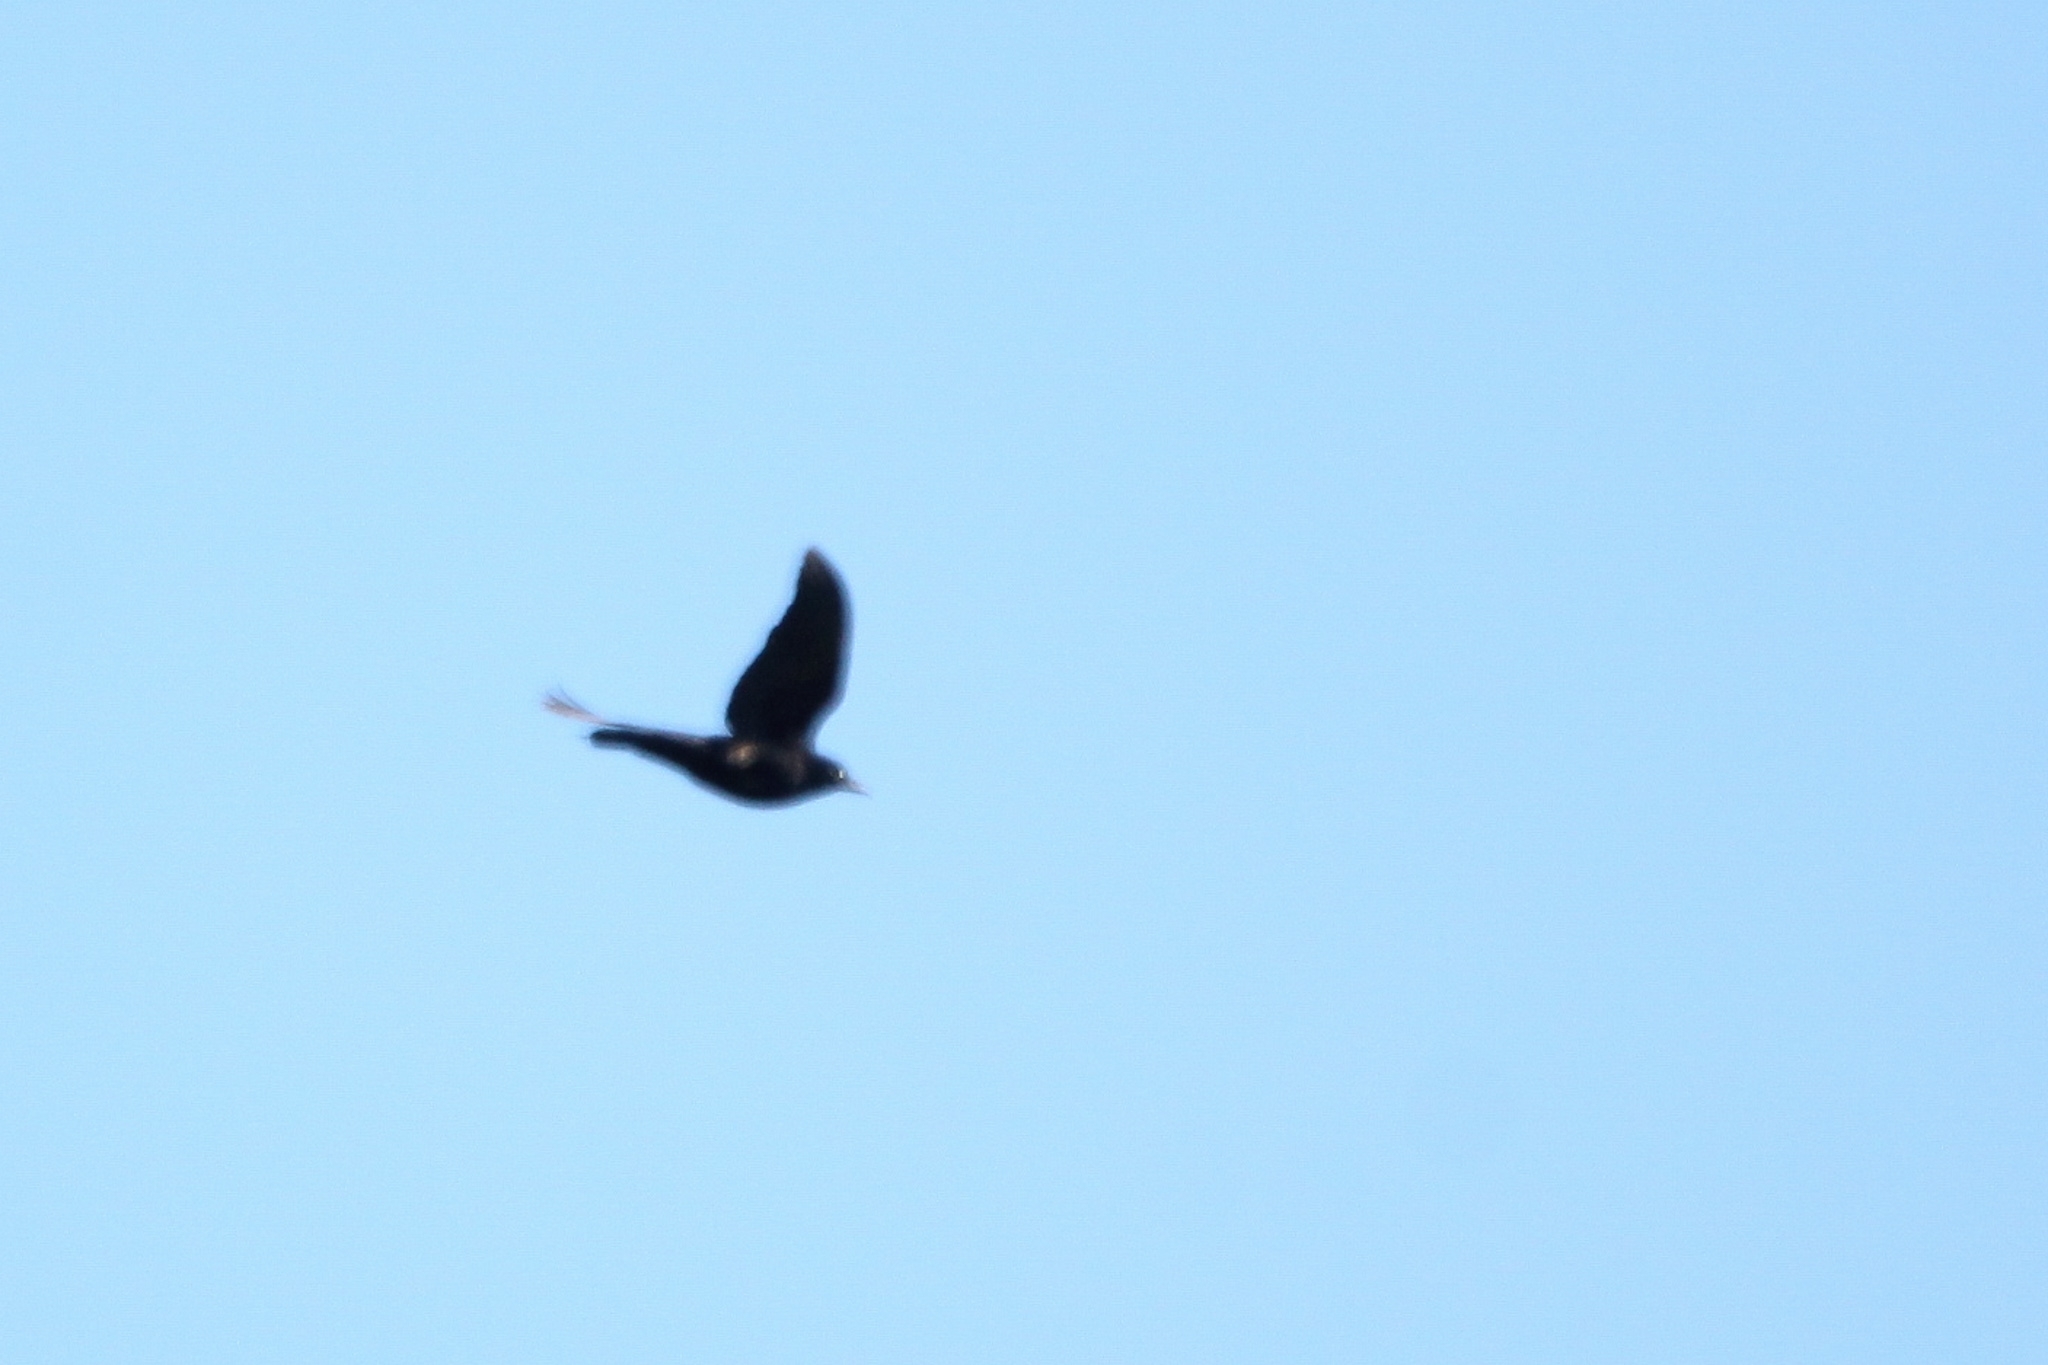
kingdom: Animalia
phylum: Chordata
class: Aves
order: Passeriformes
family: Icteridae
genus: Quiscalus
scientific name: Quiscalus quiscula
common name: Common grackle
